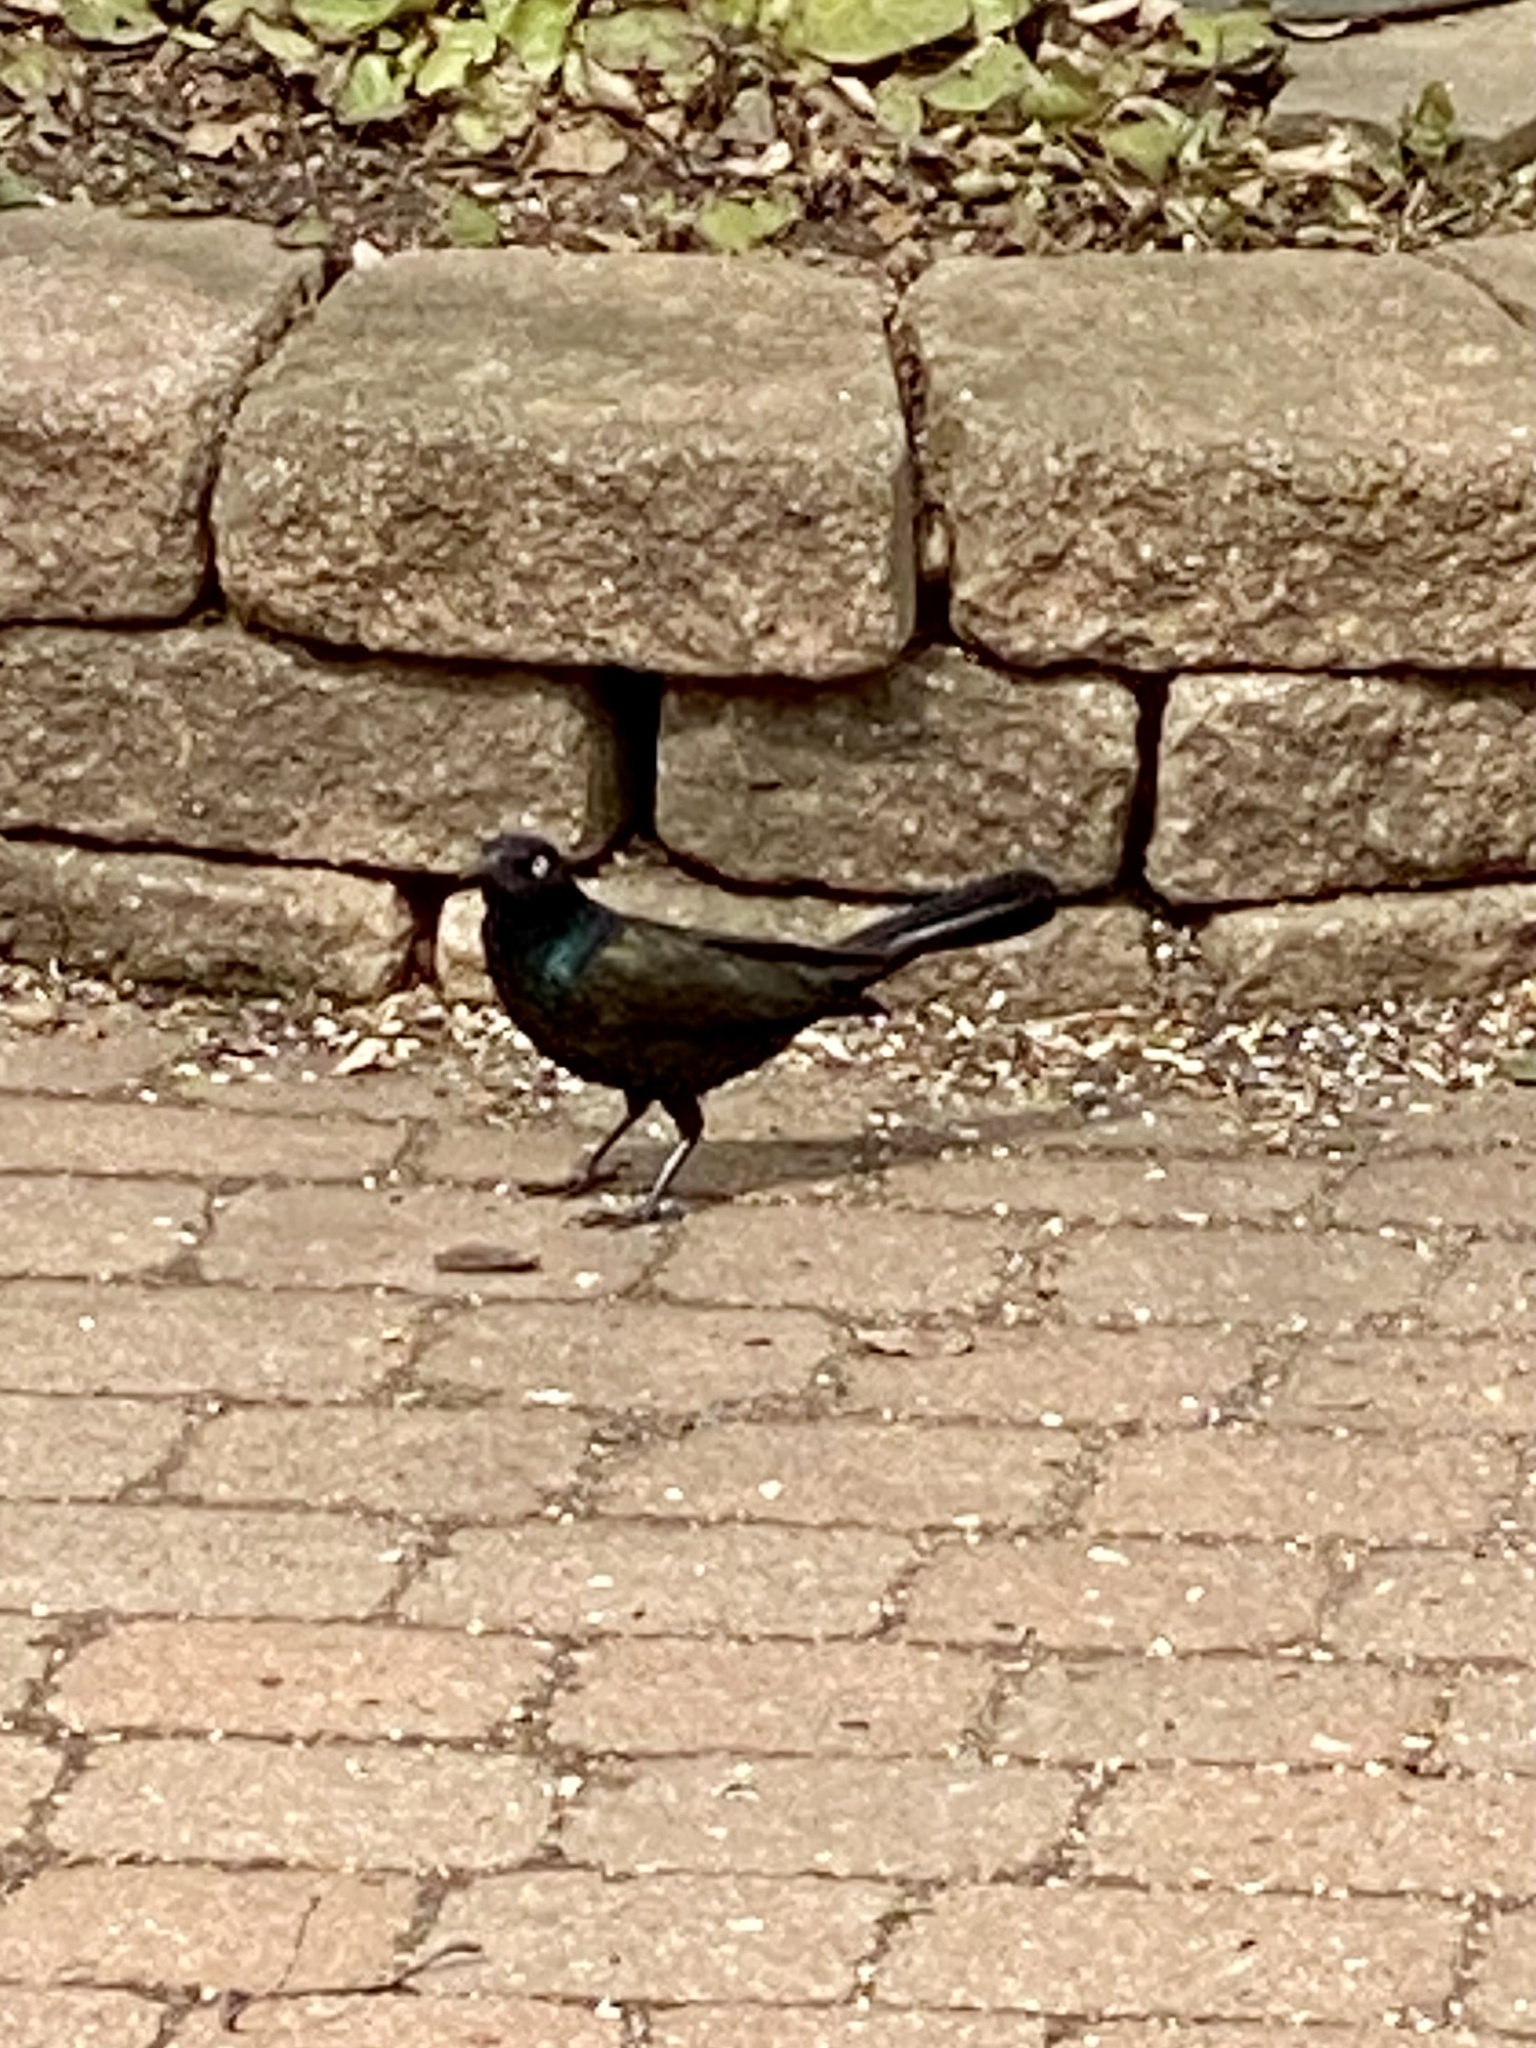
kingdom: Animalia
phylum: Chordata
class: Aves
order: Passeriformes
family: Icteridae
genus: Quiscalus
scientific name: Quiscalus quiscula
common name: Common grackle
